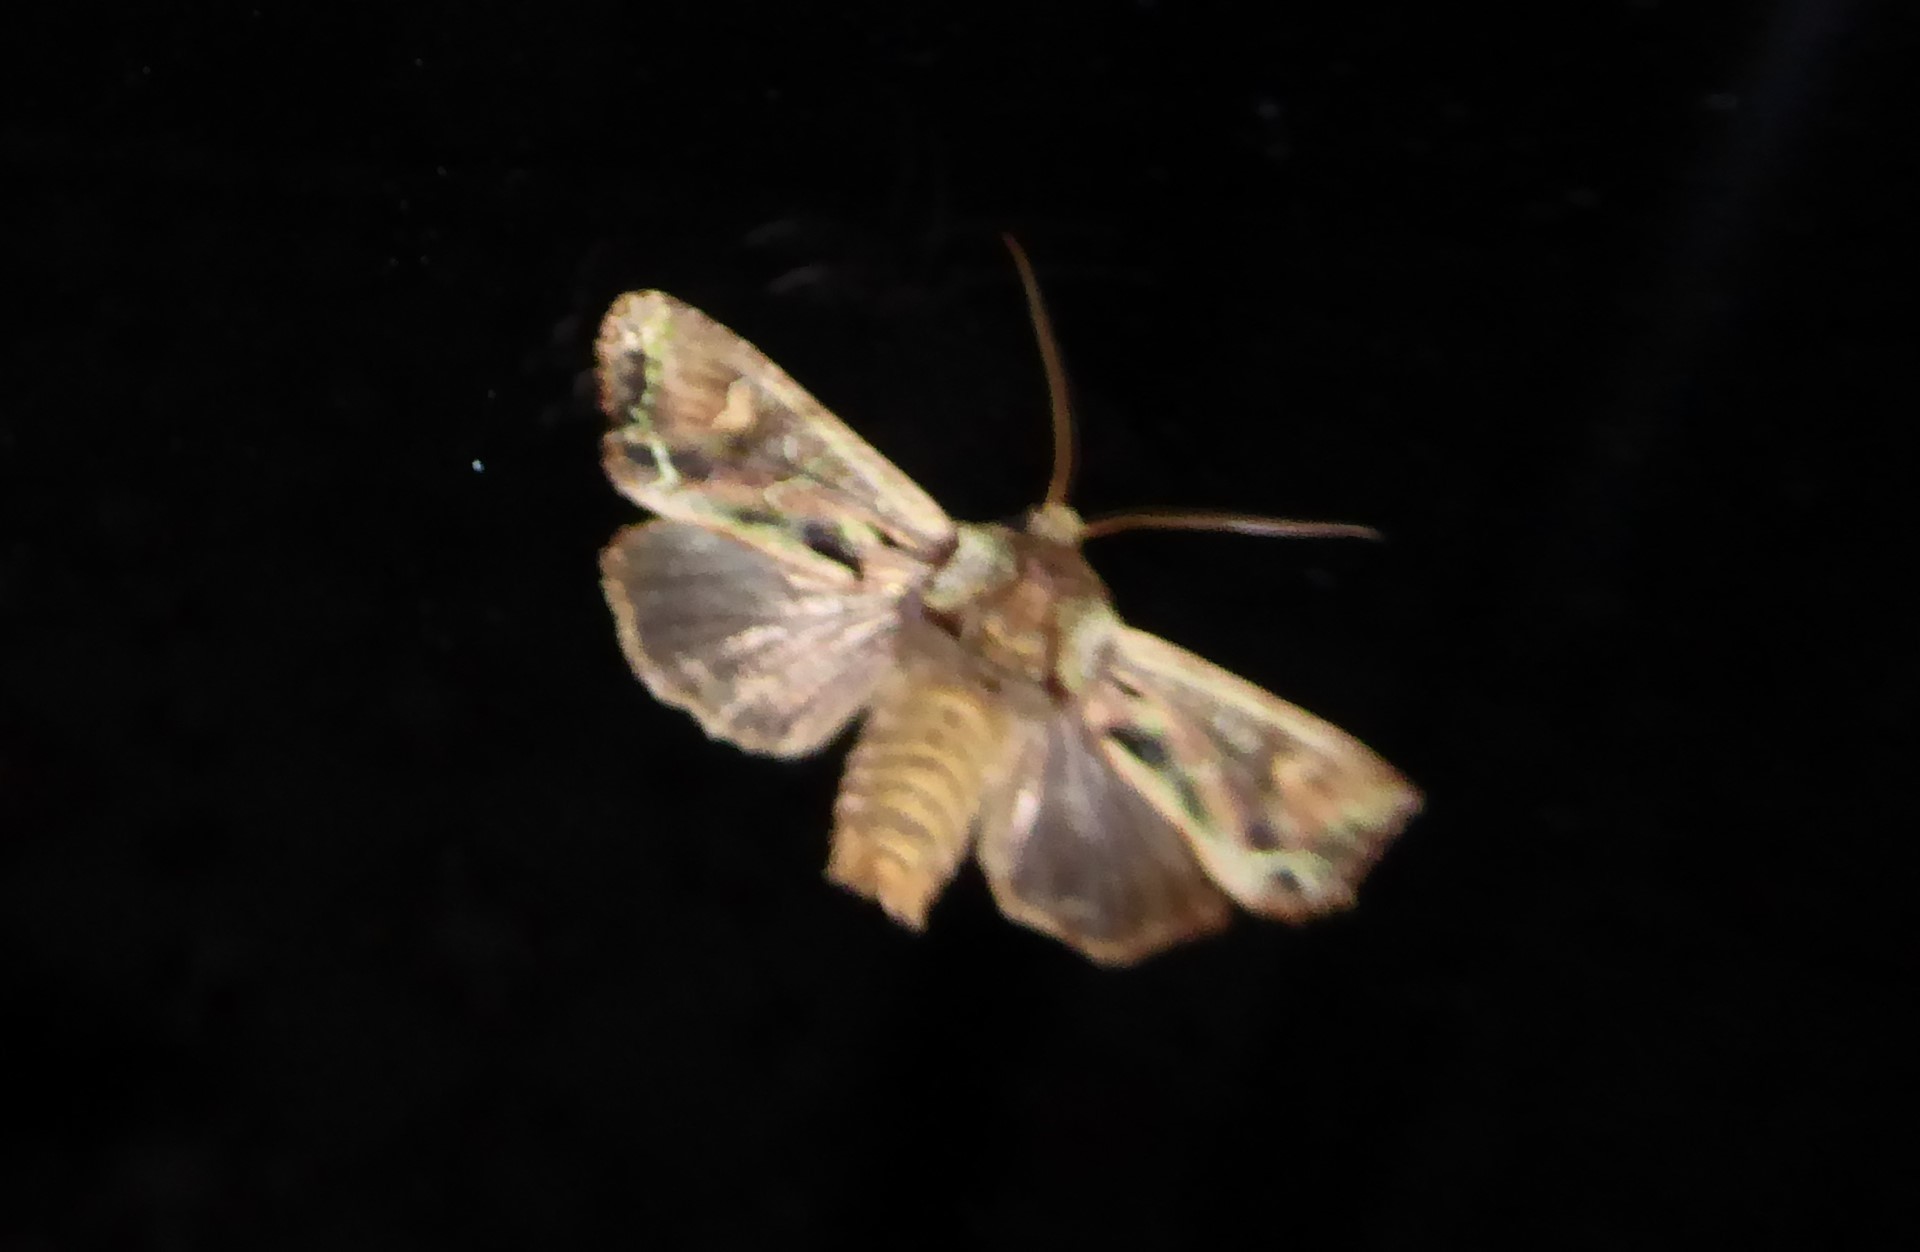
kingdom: Animalia
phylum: Arthropoda
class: Insecta
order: Lepidoptera
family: Noctuidae
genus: Ichneutica
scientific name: Ichneutica insignis
